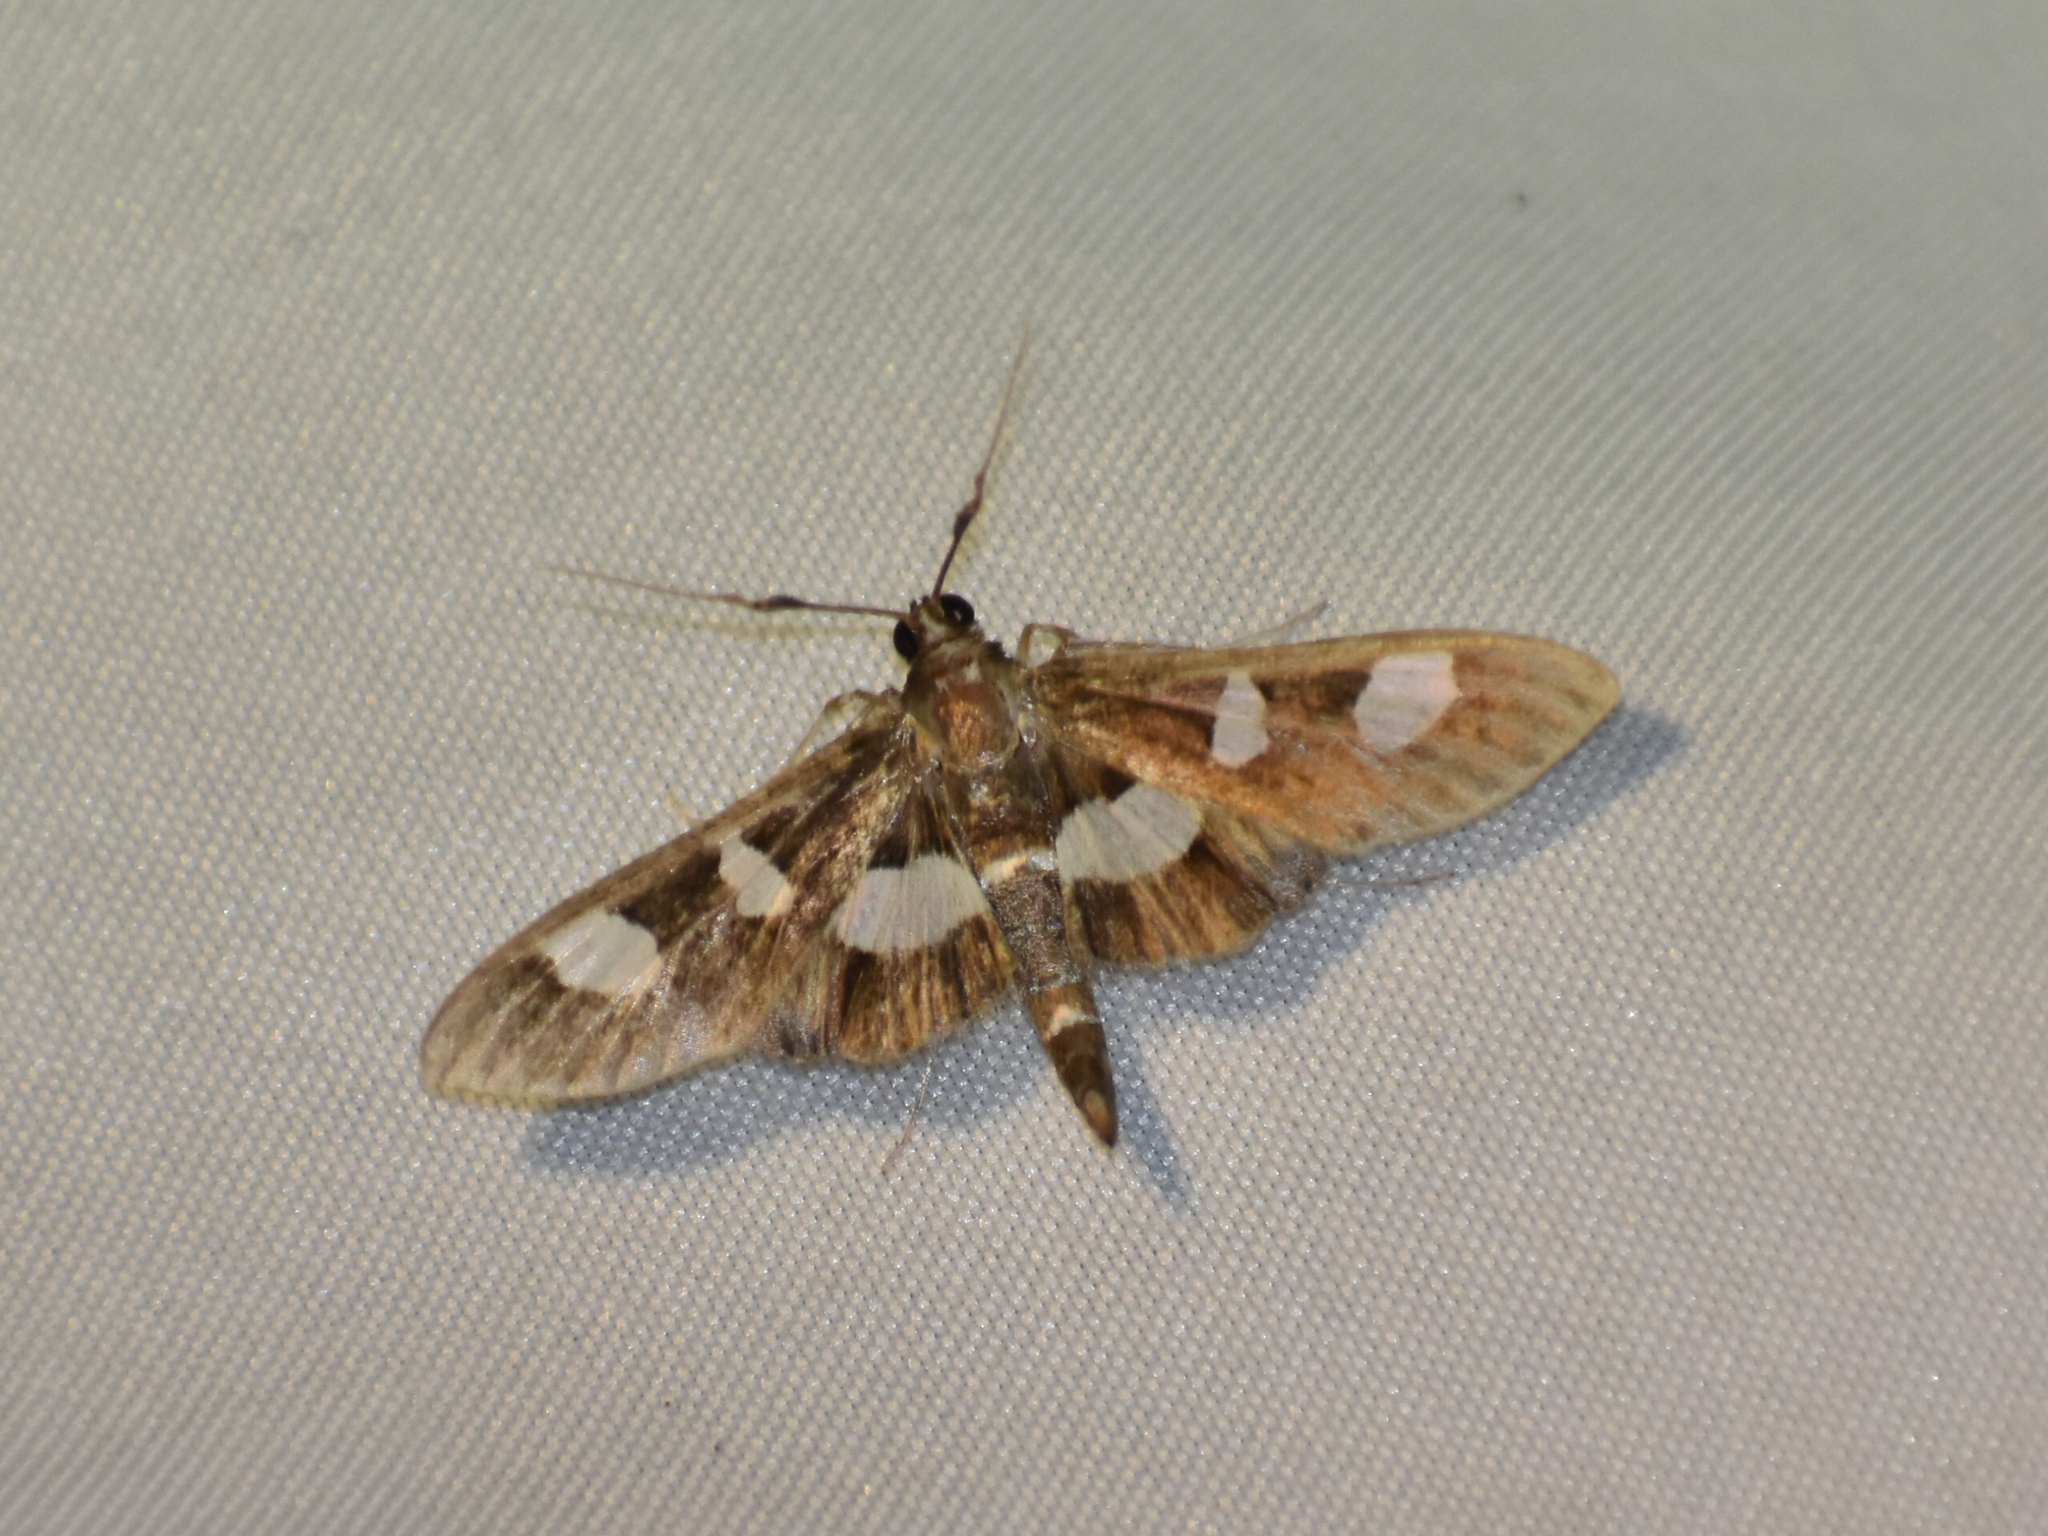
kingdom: Animalia
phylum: Arthropoda
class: Insecta
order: Lepidoptera
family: Crambidae
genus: Desmia
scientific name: Desmia
